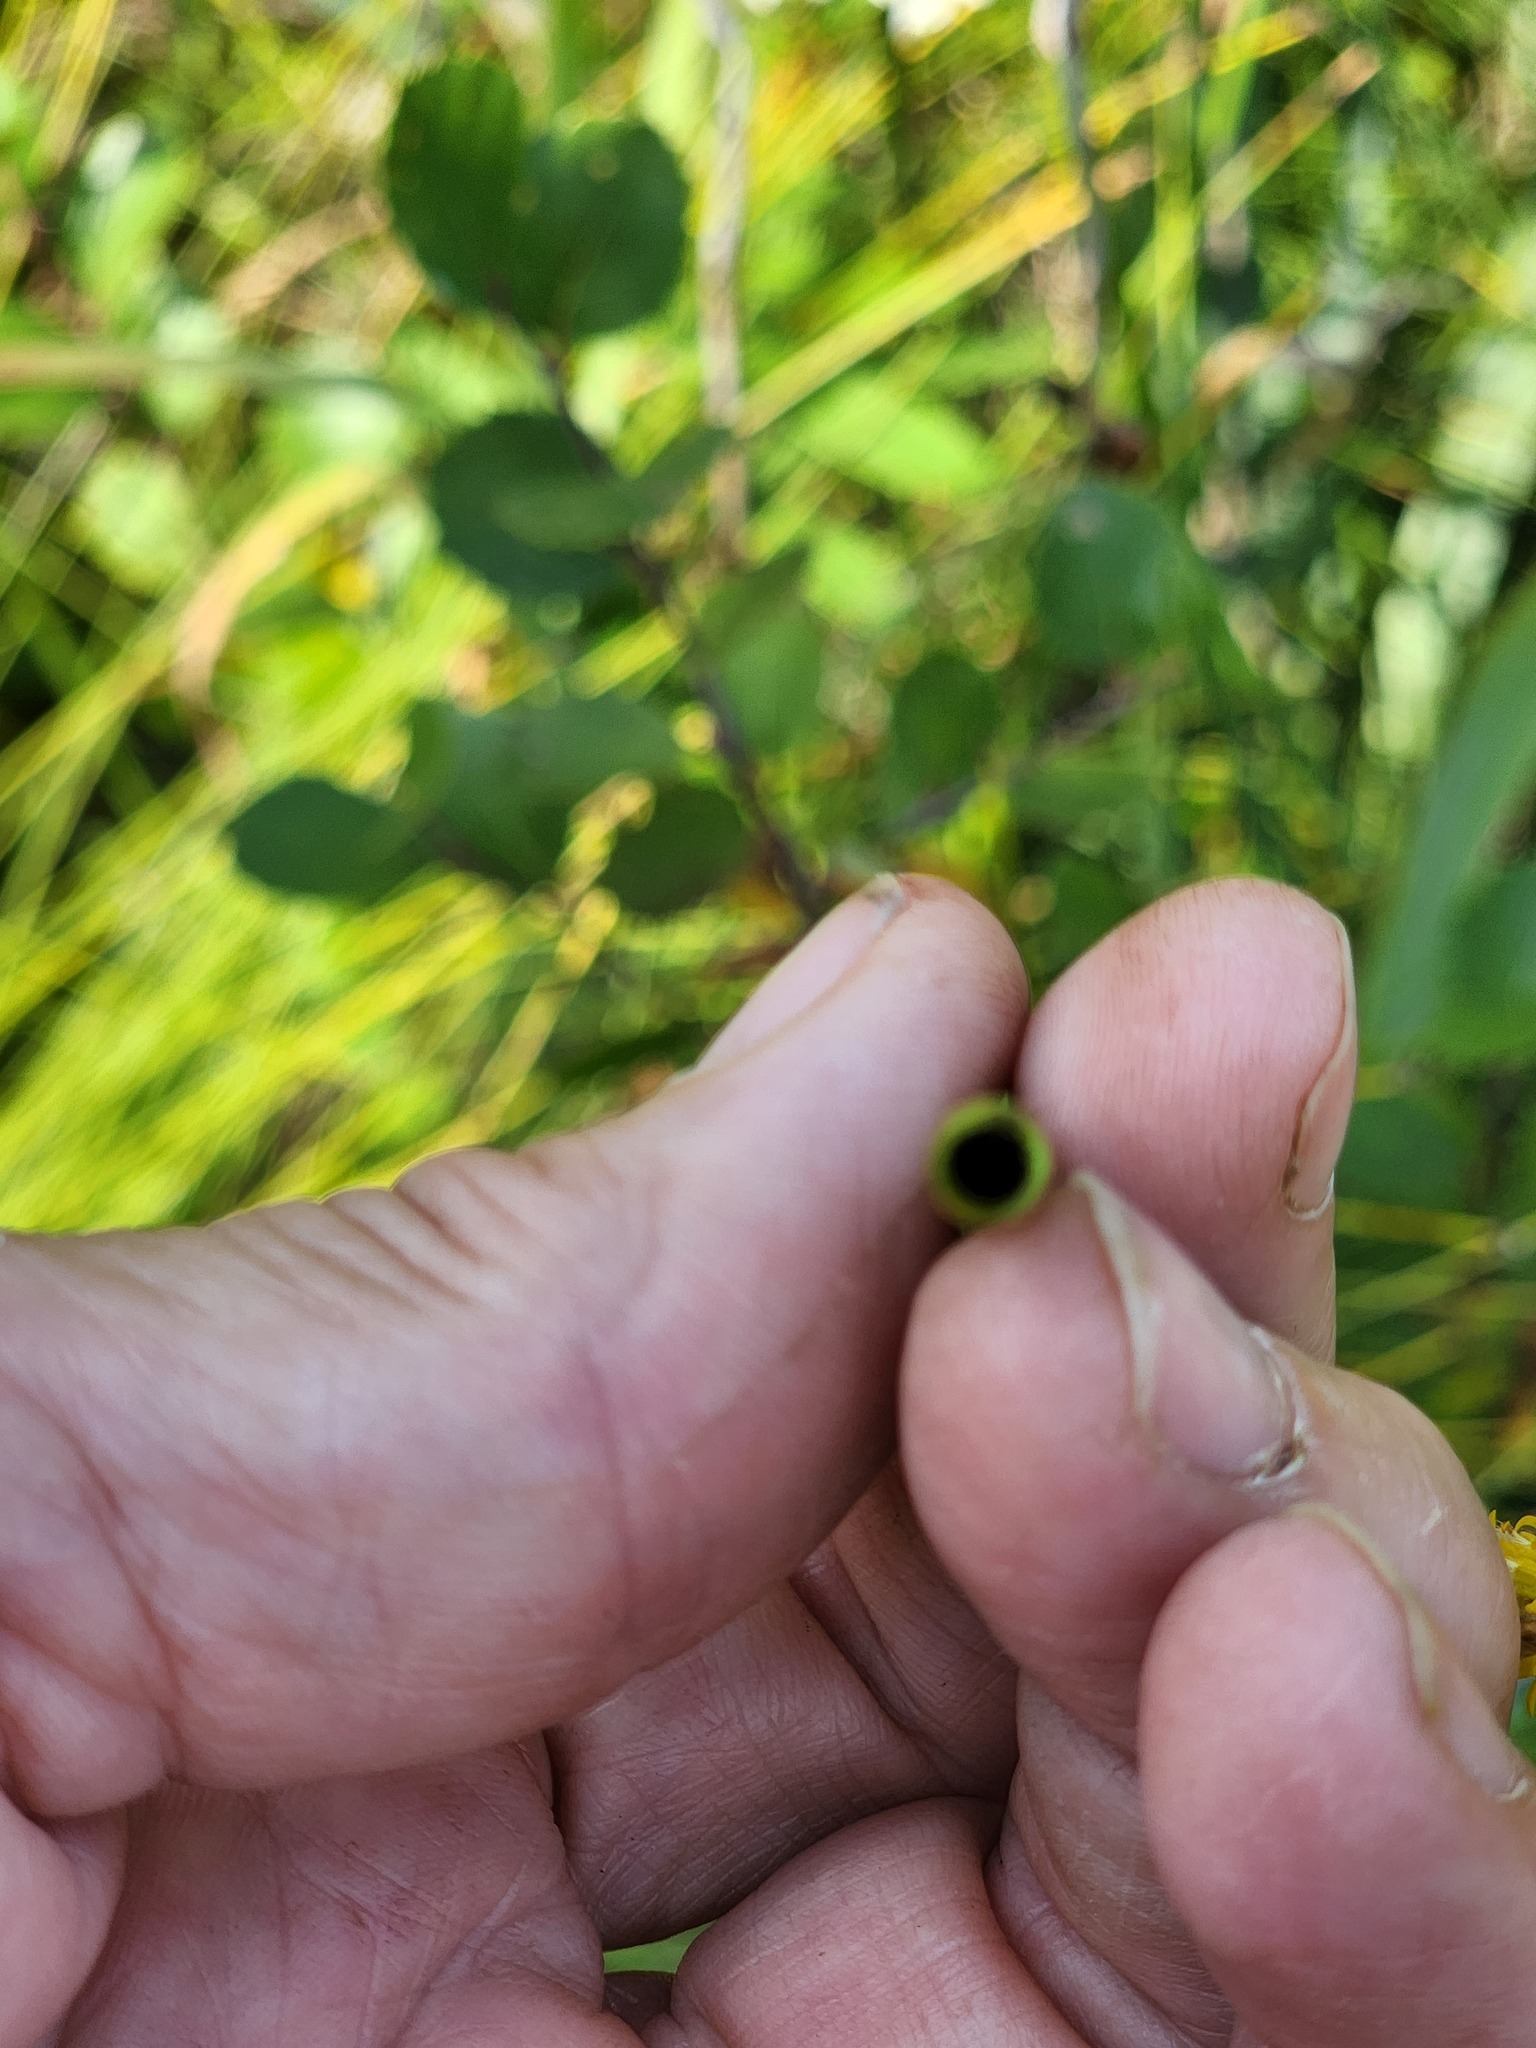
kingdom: Plantae
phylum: Tracheophyta
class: Polypodiopsida
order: Equisetales
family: Equisetaceae
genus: Equisetum
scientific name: Equisetum fluviatile
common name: Water horsetail
